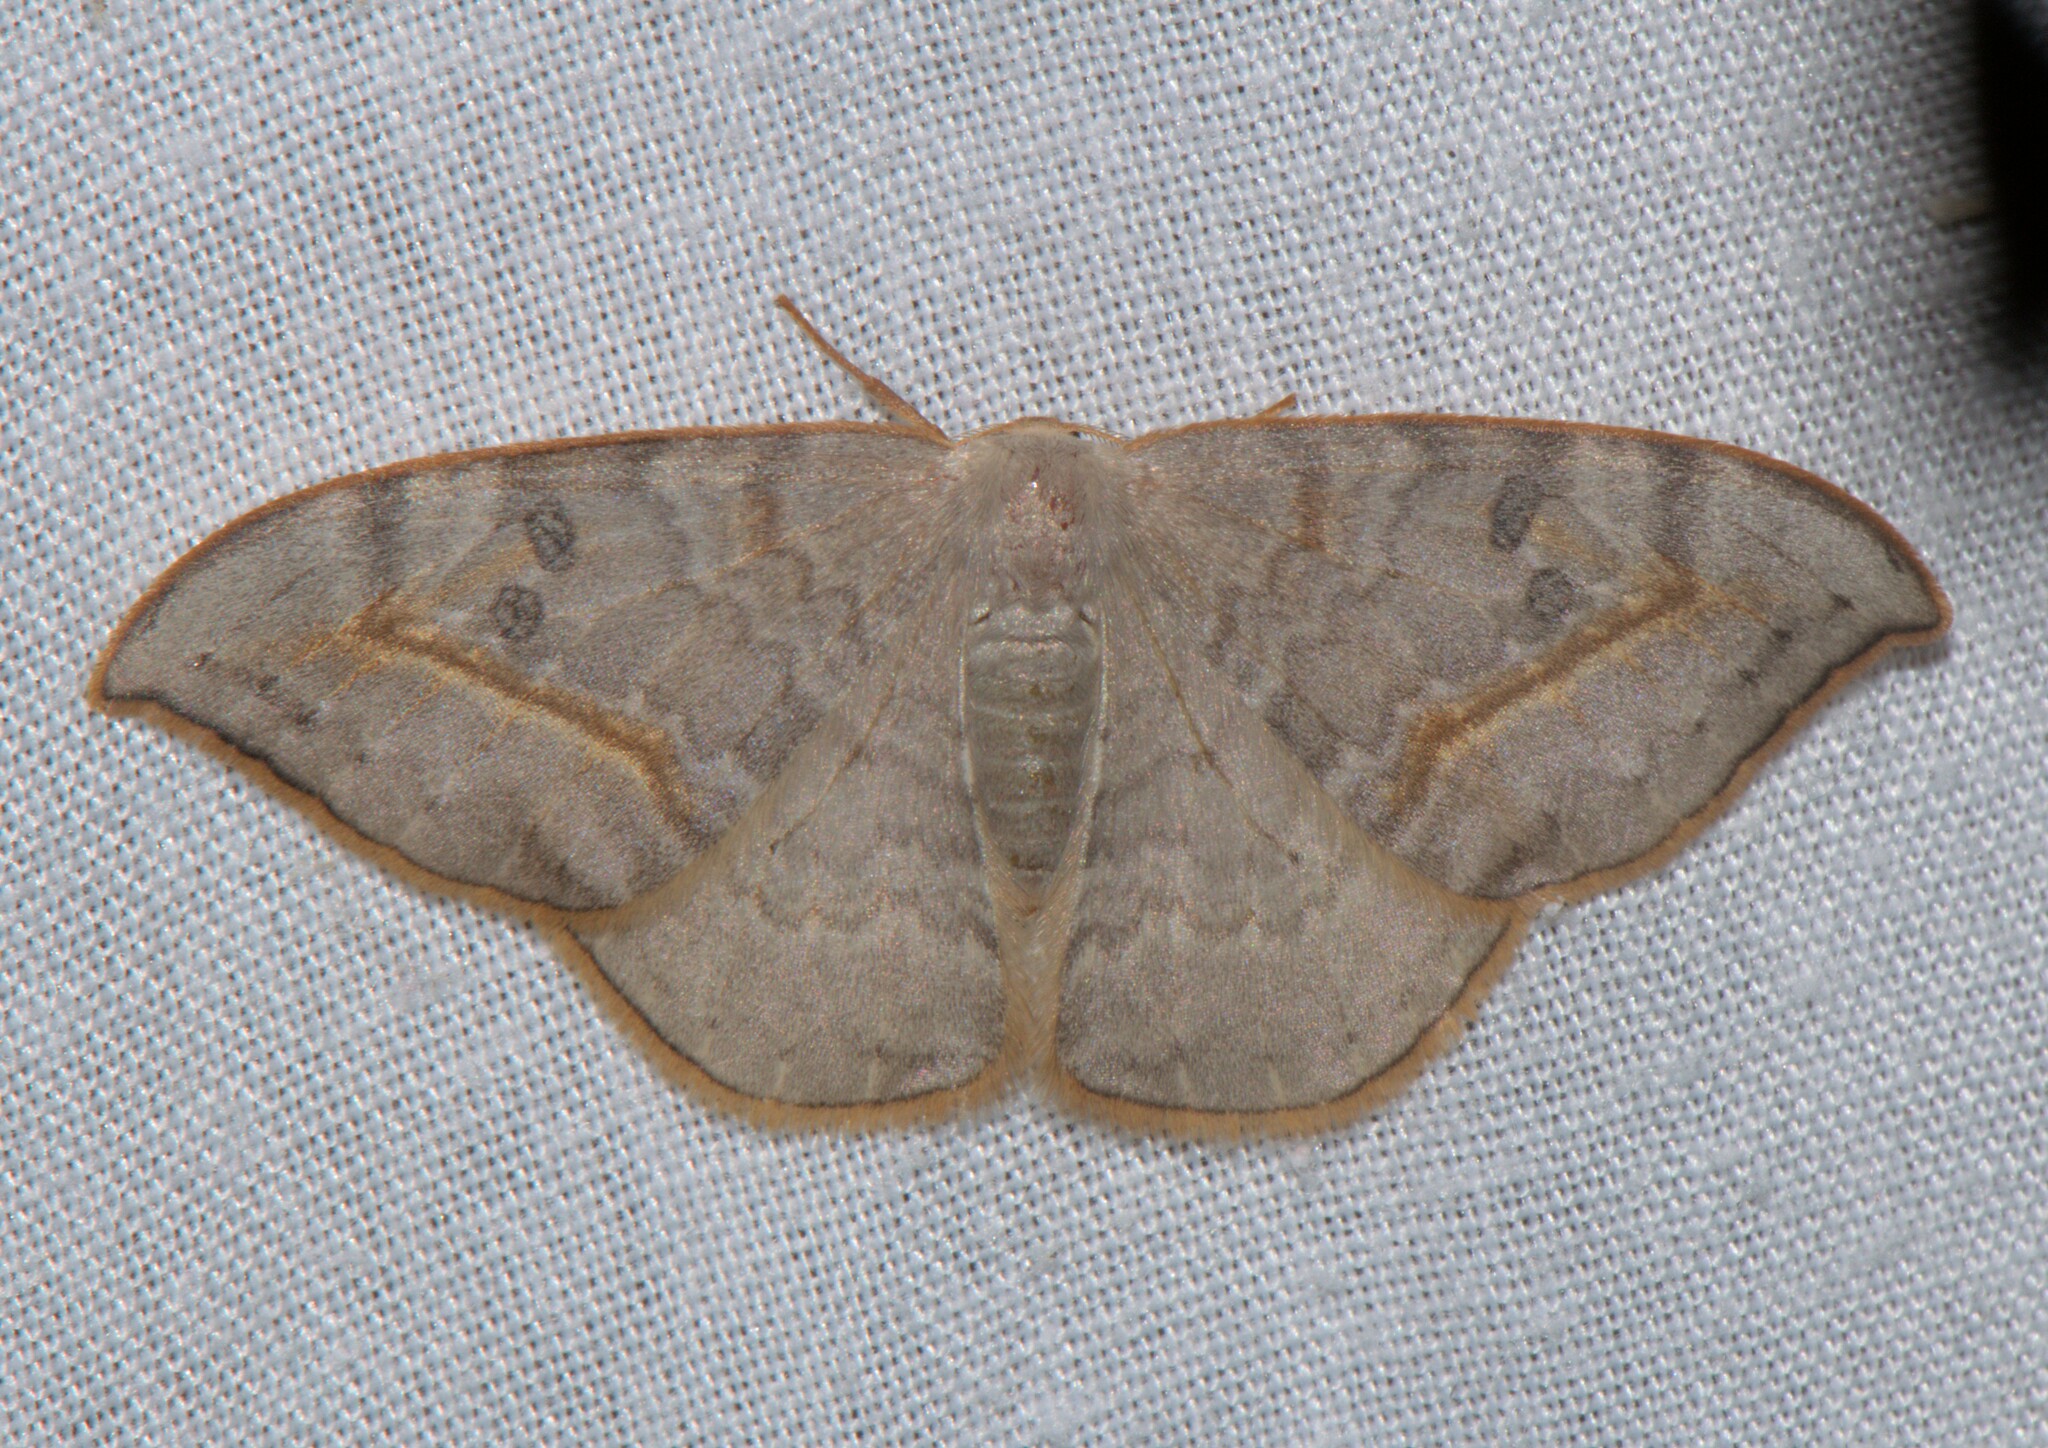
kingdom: Animalia
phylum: Arthropoda
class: Insecta
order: Lepidoptera
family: Drepanidae
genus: Drepana
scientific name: Drepana dispilata
